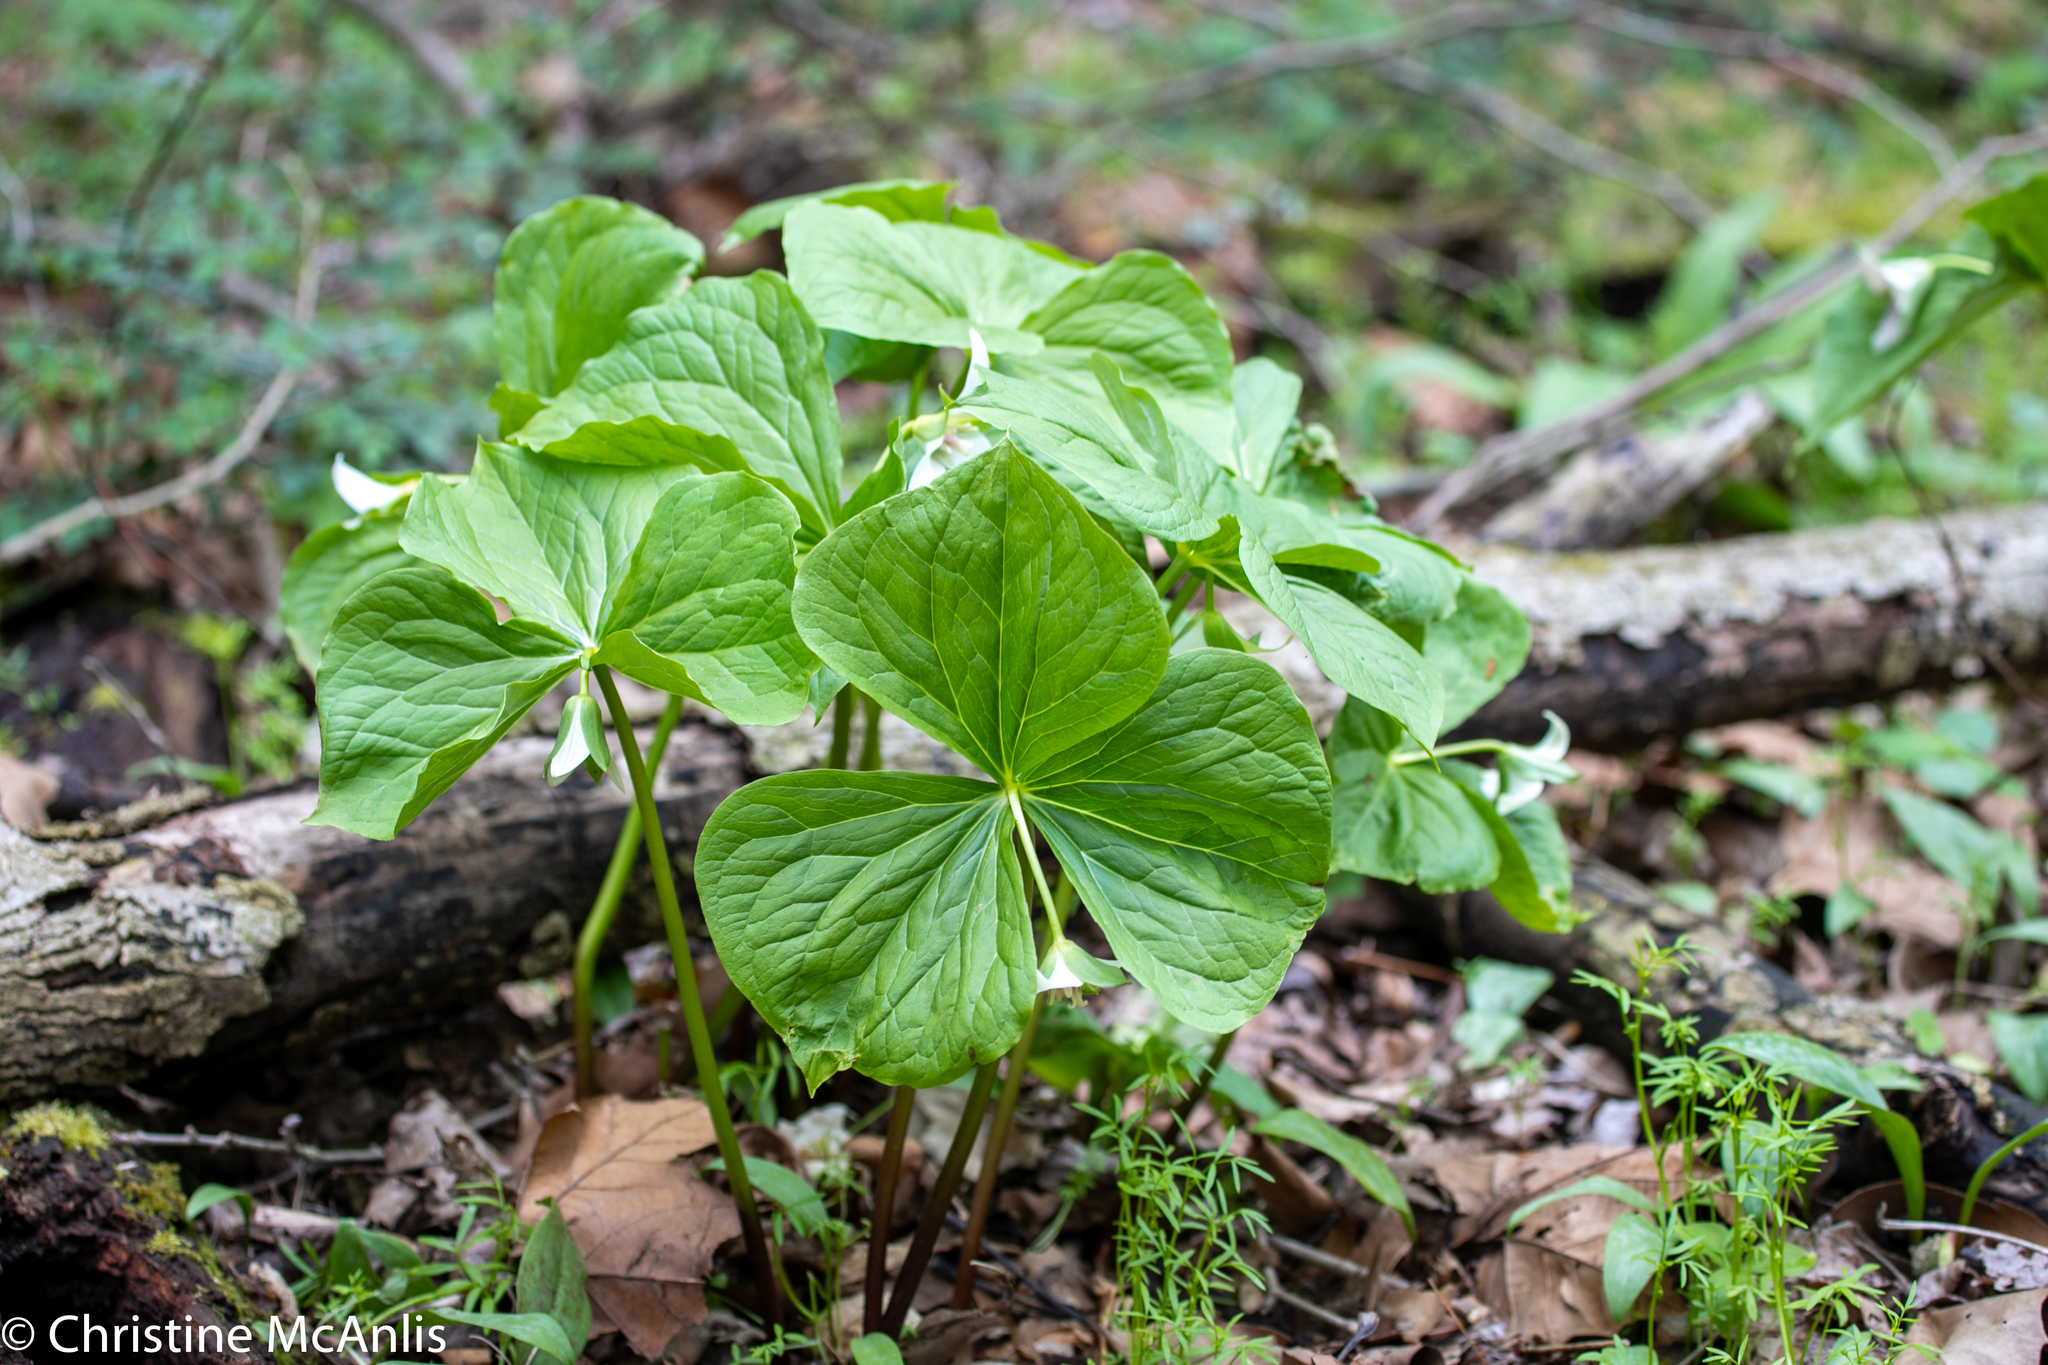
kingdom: Plantae
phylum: Tracheophyta
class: Liliopsida
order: Liliales
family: Melanthiaceae
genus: Trillium
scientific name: Trillium flexipes
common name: Drooping trillium
